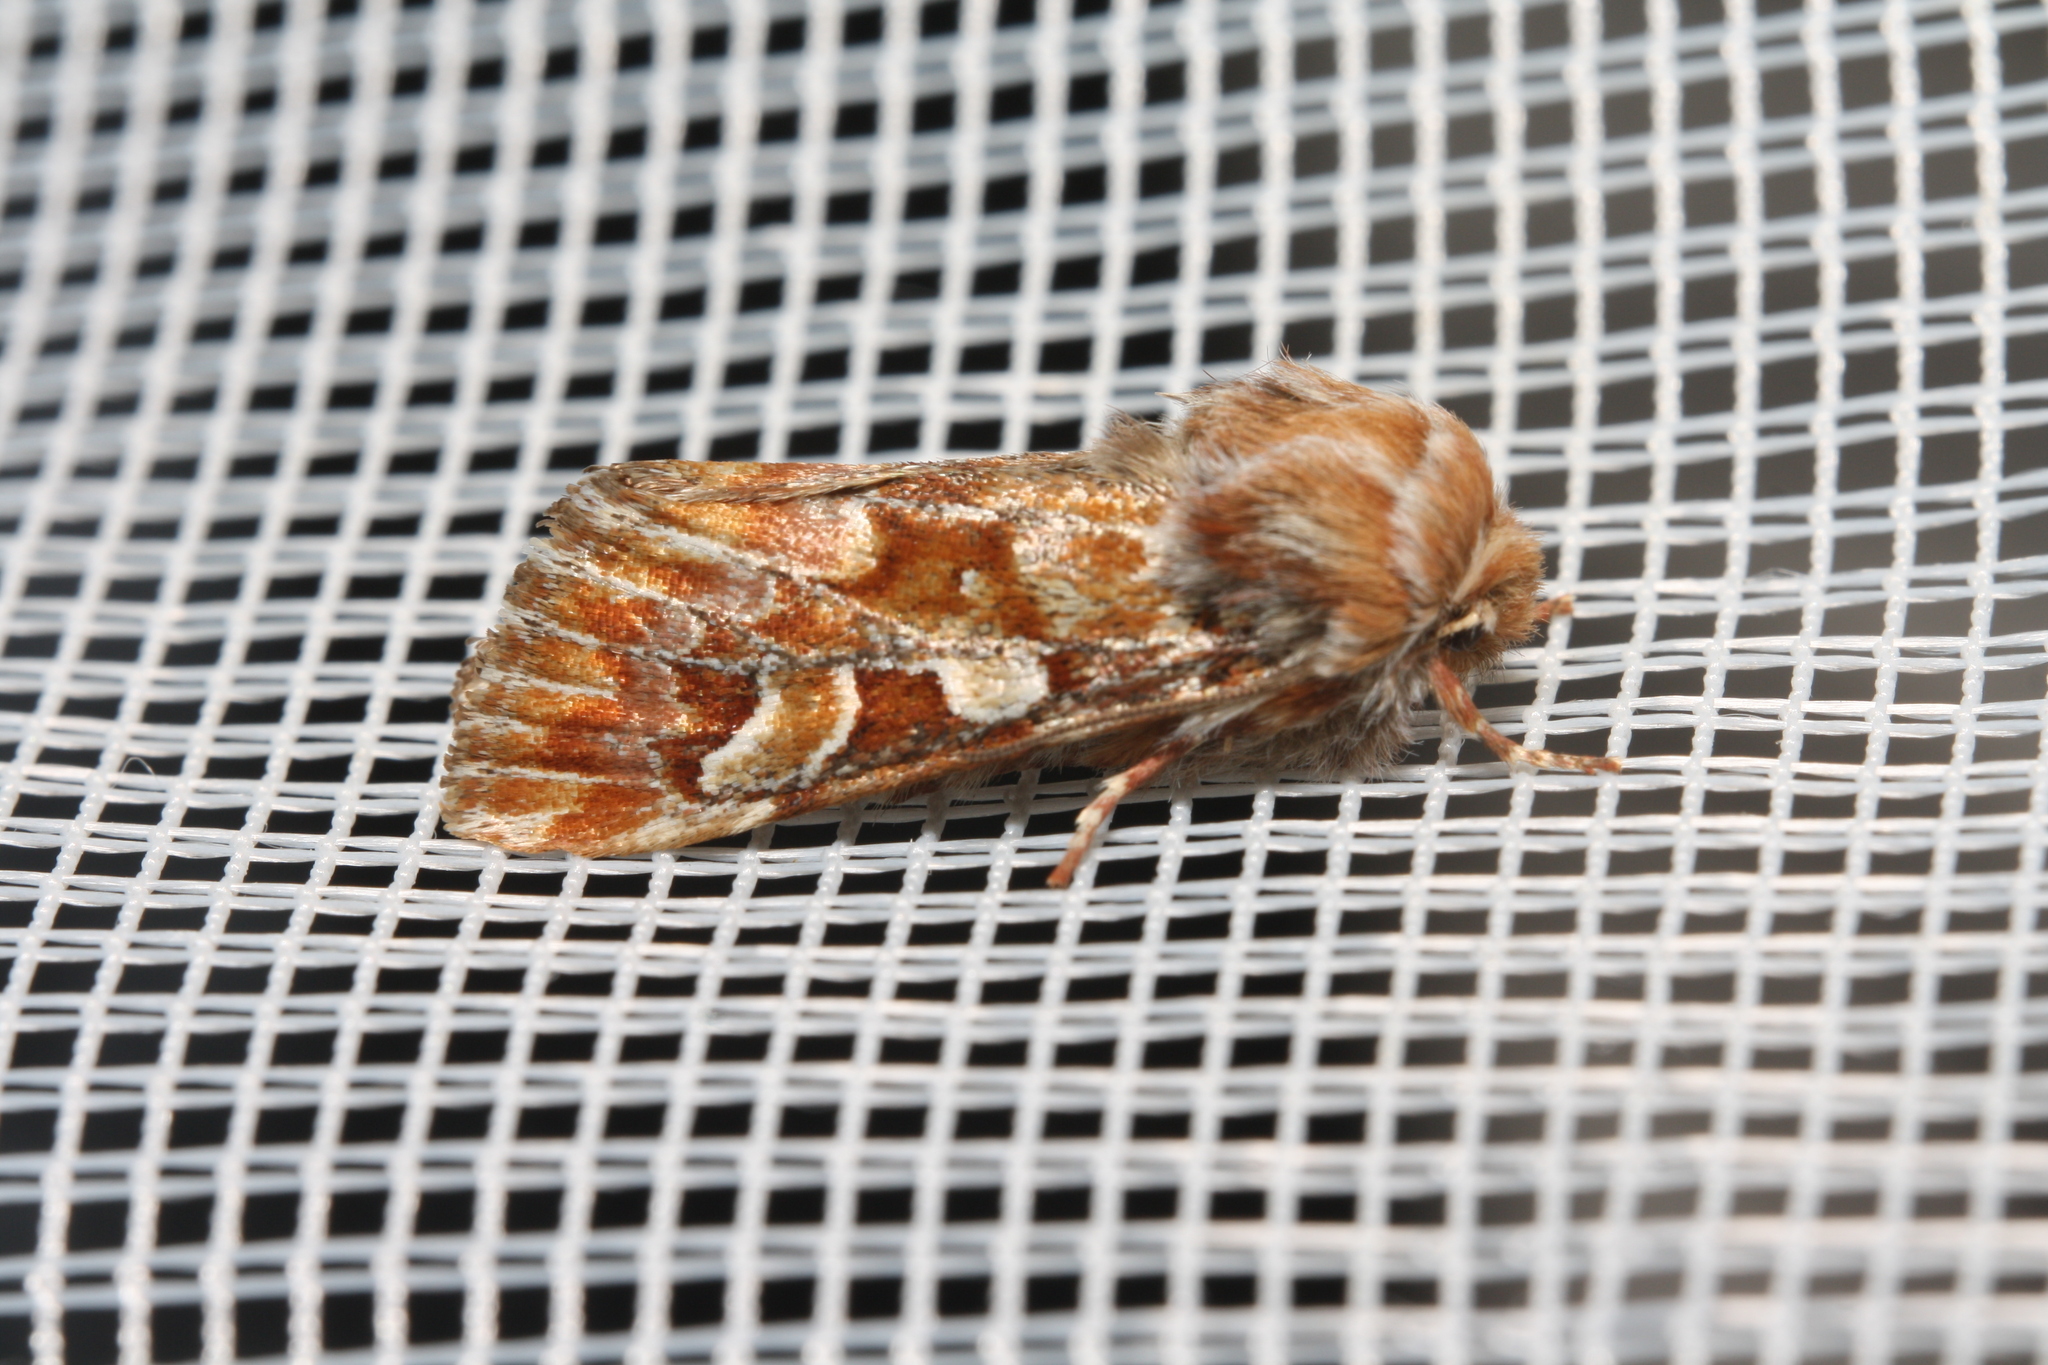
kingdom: Animalia
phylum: Arthropoda
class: Insecta
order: Lepidoptera
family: Noctuidae
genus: Panolis
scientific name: Panolis flammea
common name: Pine beauty
